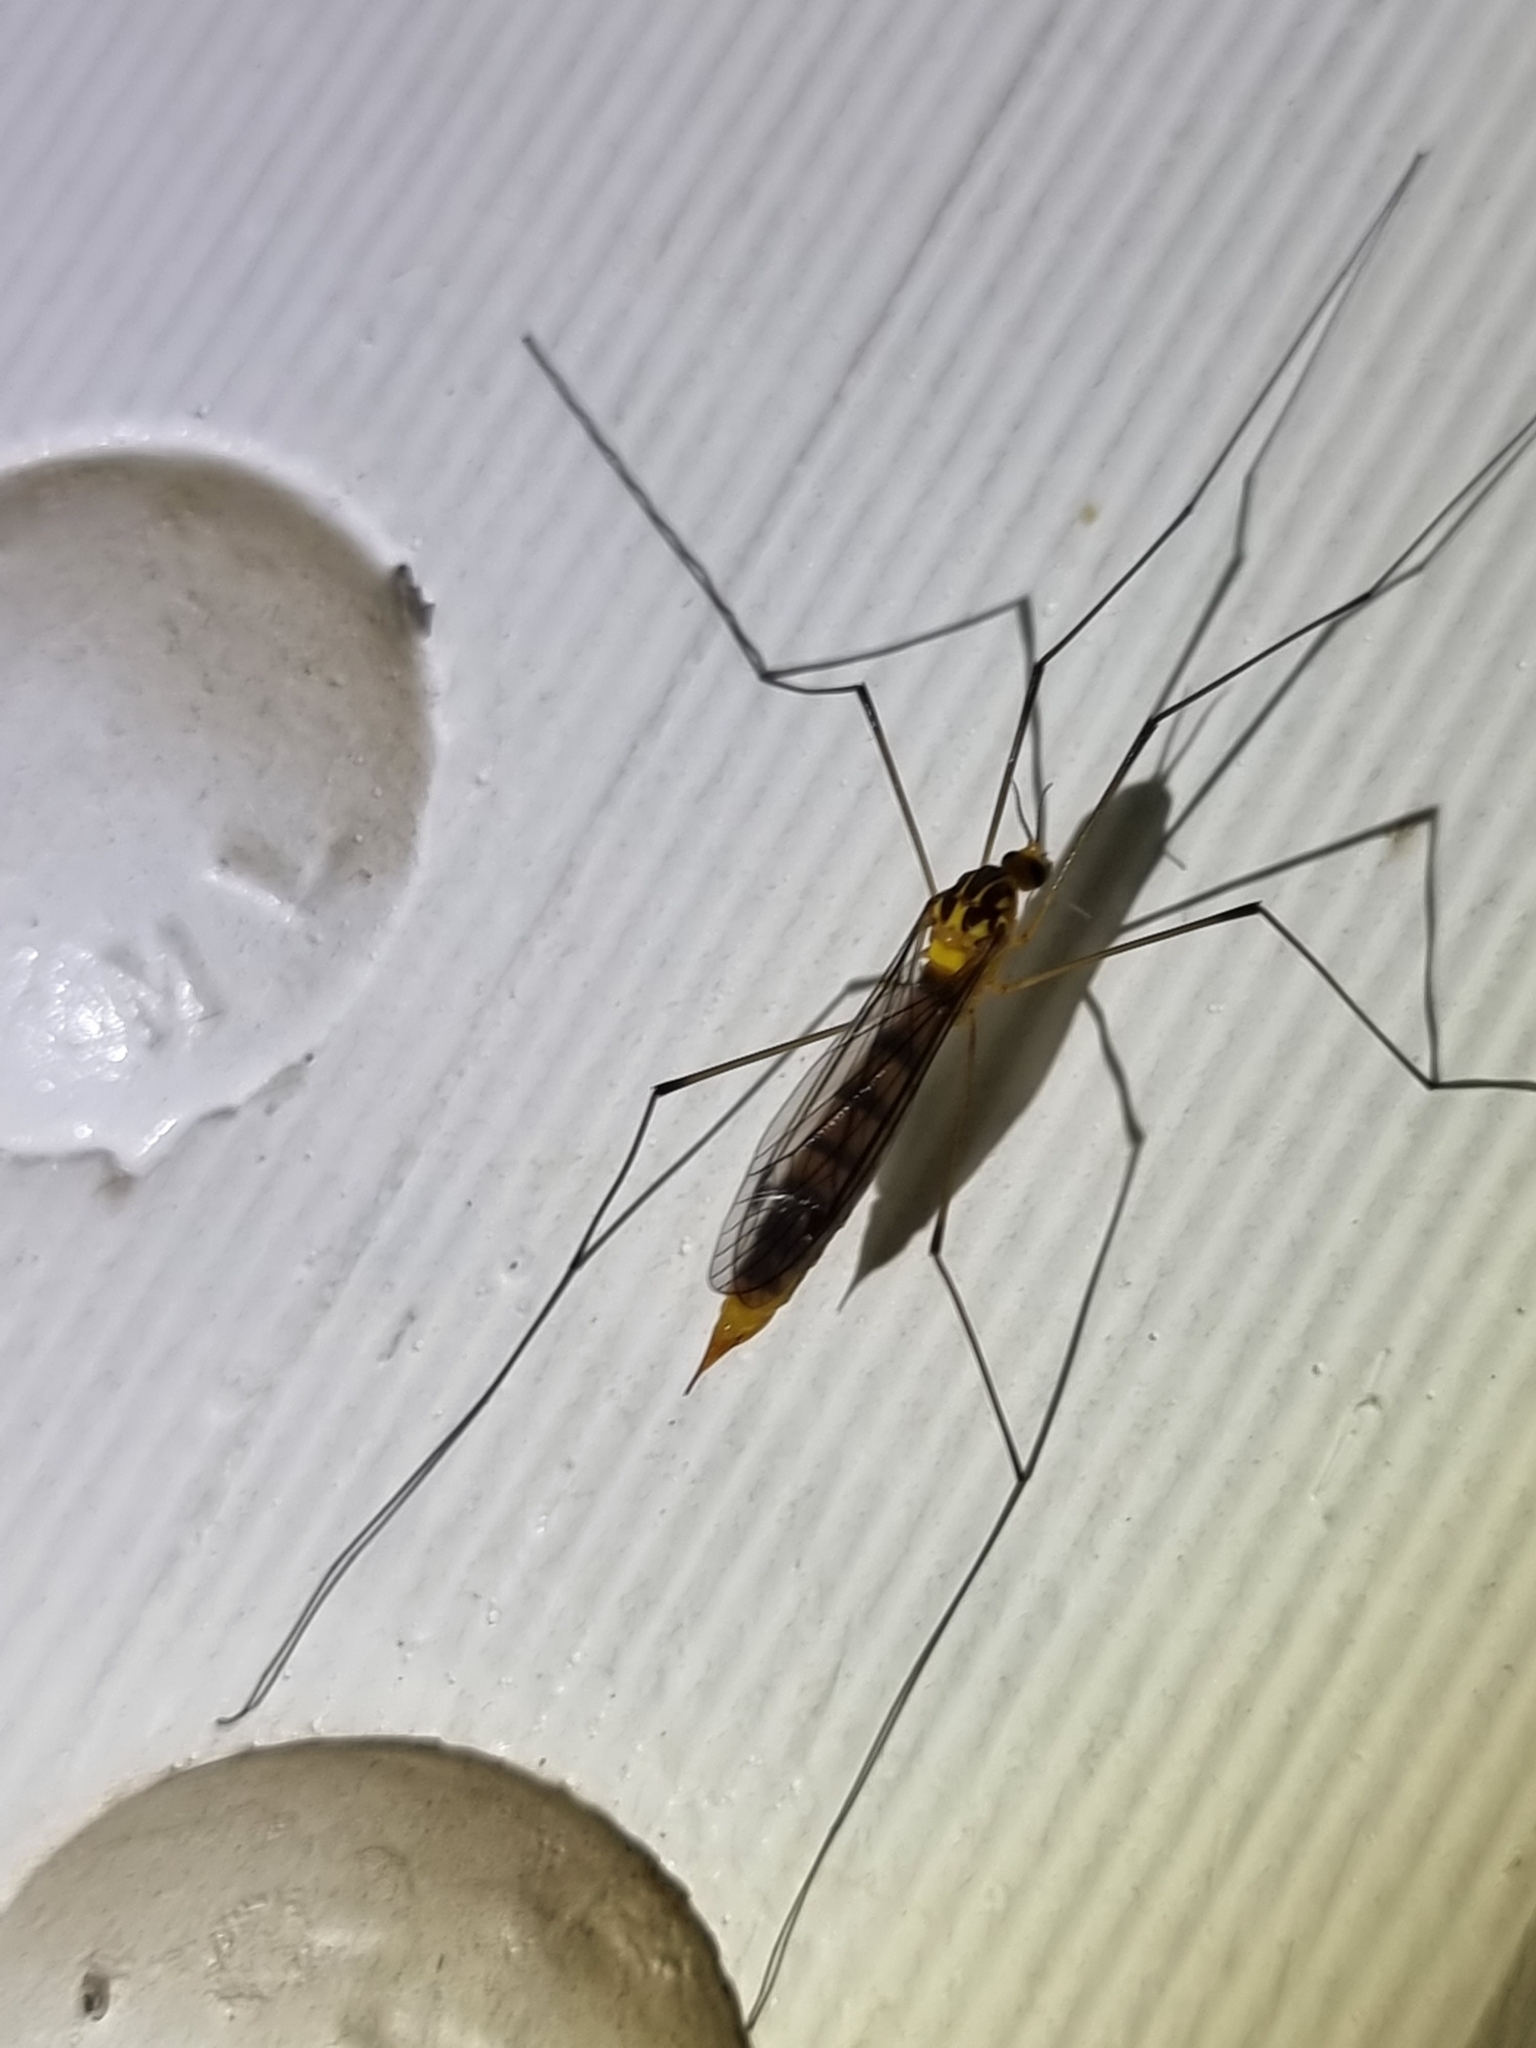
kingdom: Animalia
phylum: Arthropoda
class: Insecta
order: Diptera
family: Tipulidae
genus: Nephrotoma
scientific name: Nephrotoma australasiae
